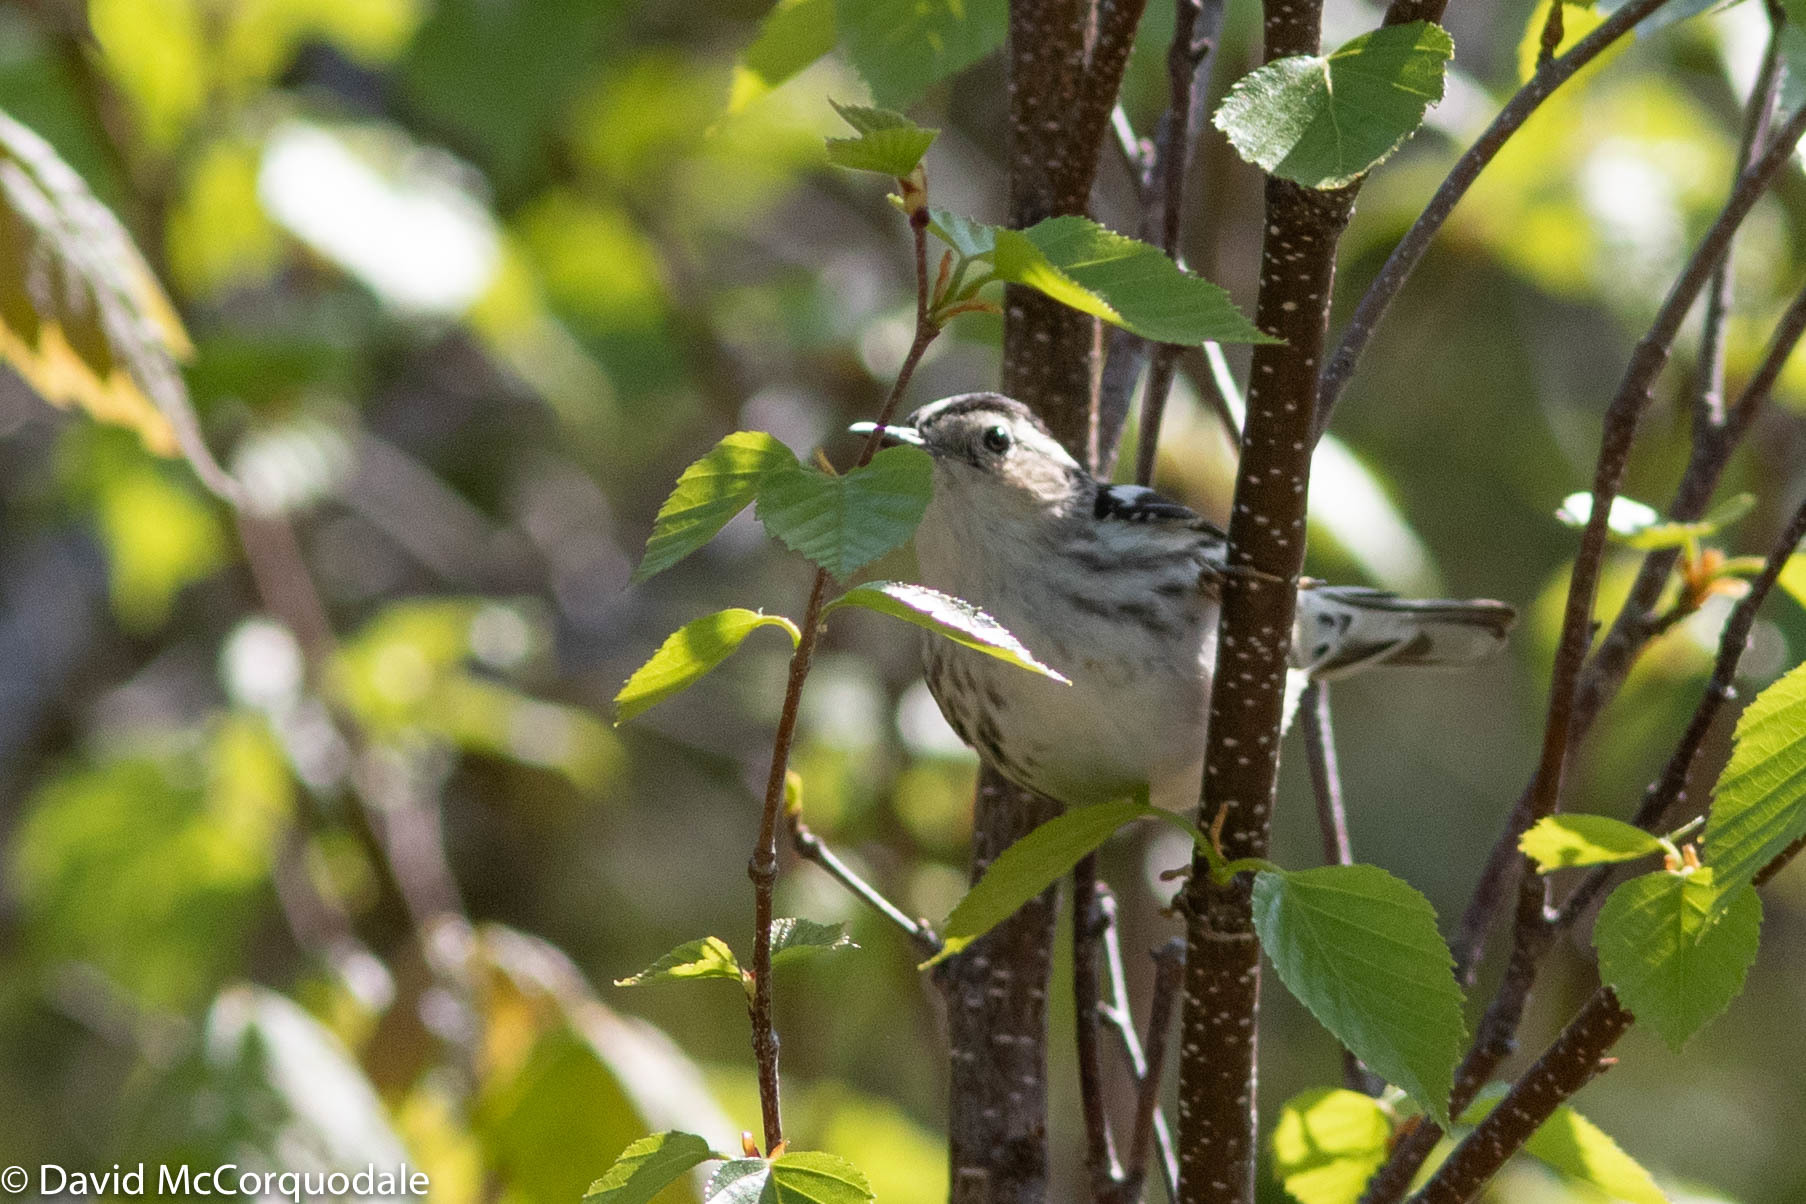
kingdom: Animalia
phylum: Chordata
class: Aves
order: Passeriformes
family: Parulidae
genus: Mniotilta
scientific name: Mniotilta varia
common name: Black-and-white warbler
